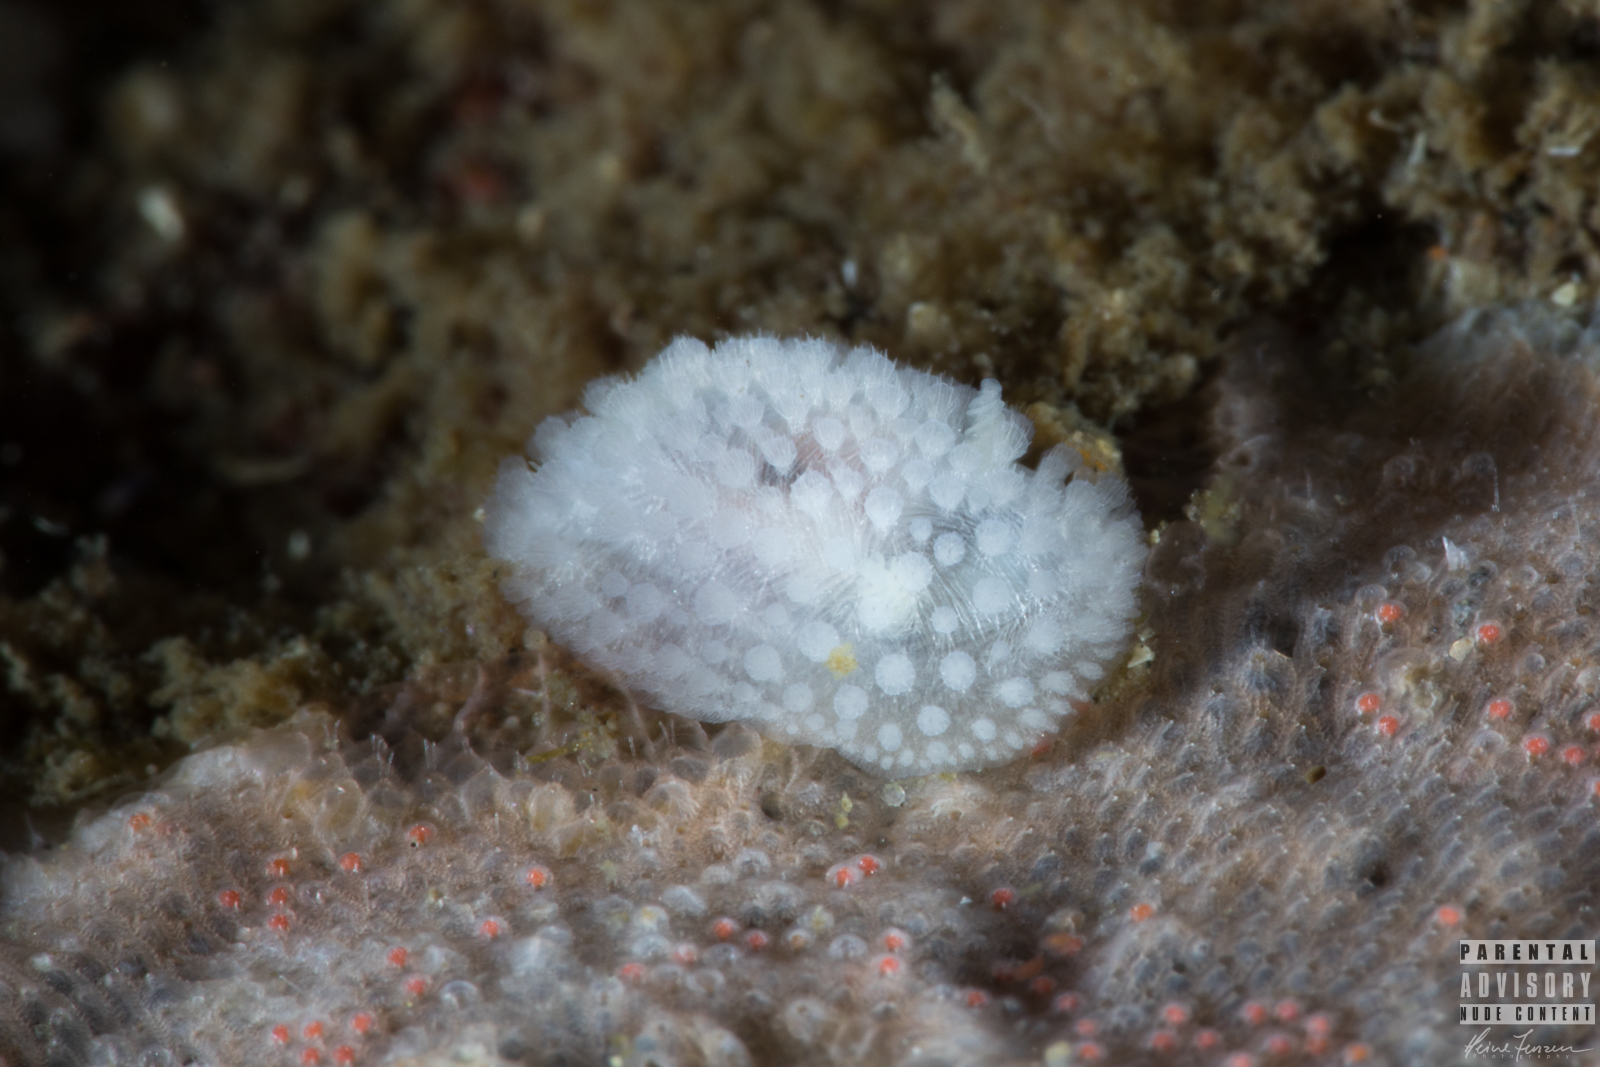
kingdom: Animalia
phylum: Mollusca
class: Gastropoda
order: Nudibranchia
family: Onchidorididae
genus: Onchidoris
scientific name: Onchidoris muricata
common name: Rough doris
